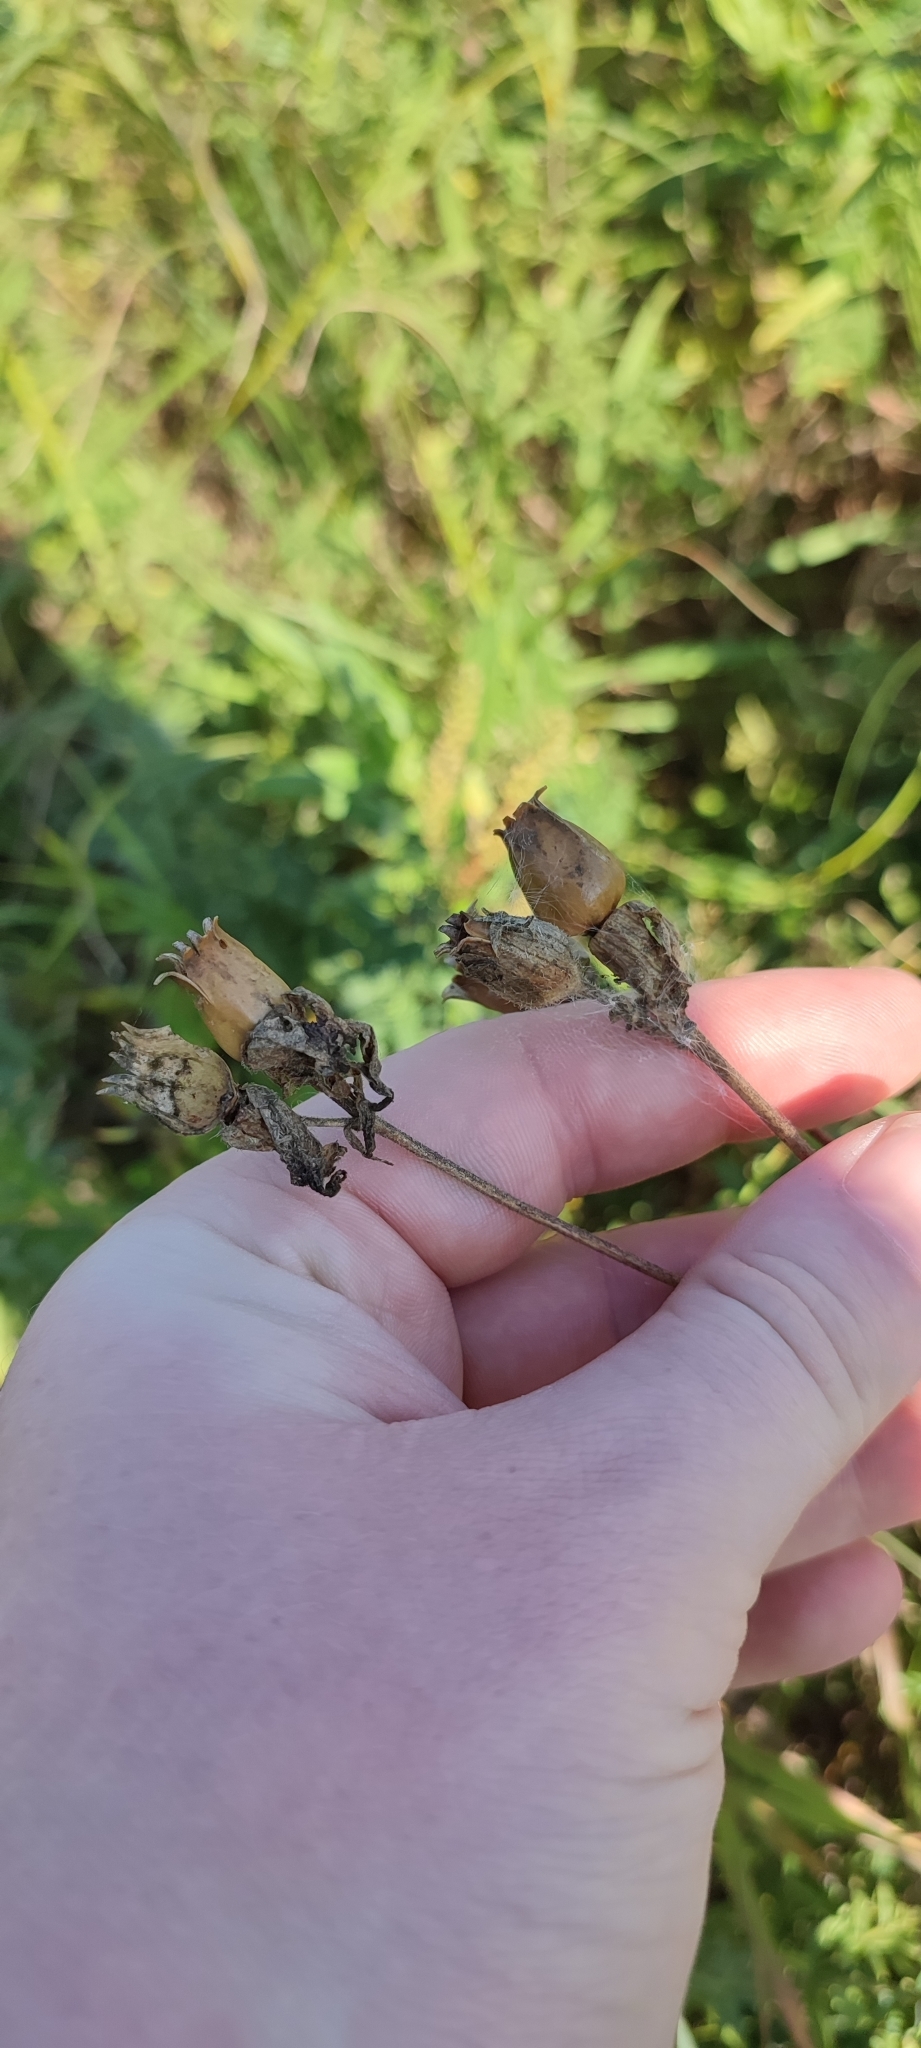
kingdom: Plantae
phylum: Tracheophyta
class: Magnoliopsida
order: Caryophyllales
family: Caryophyllaceae
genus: Silene
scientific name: Silene latifolia
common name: White campion
